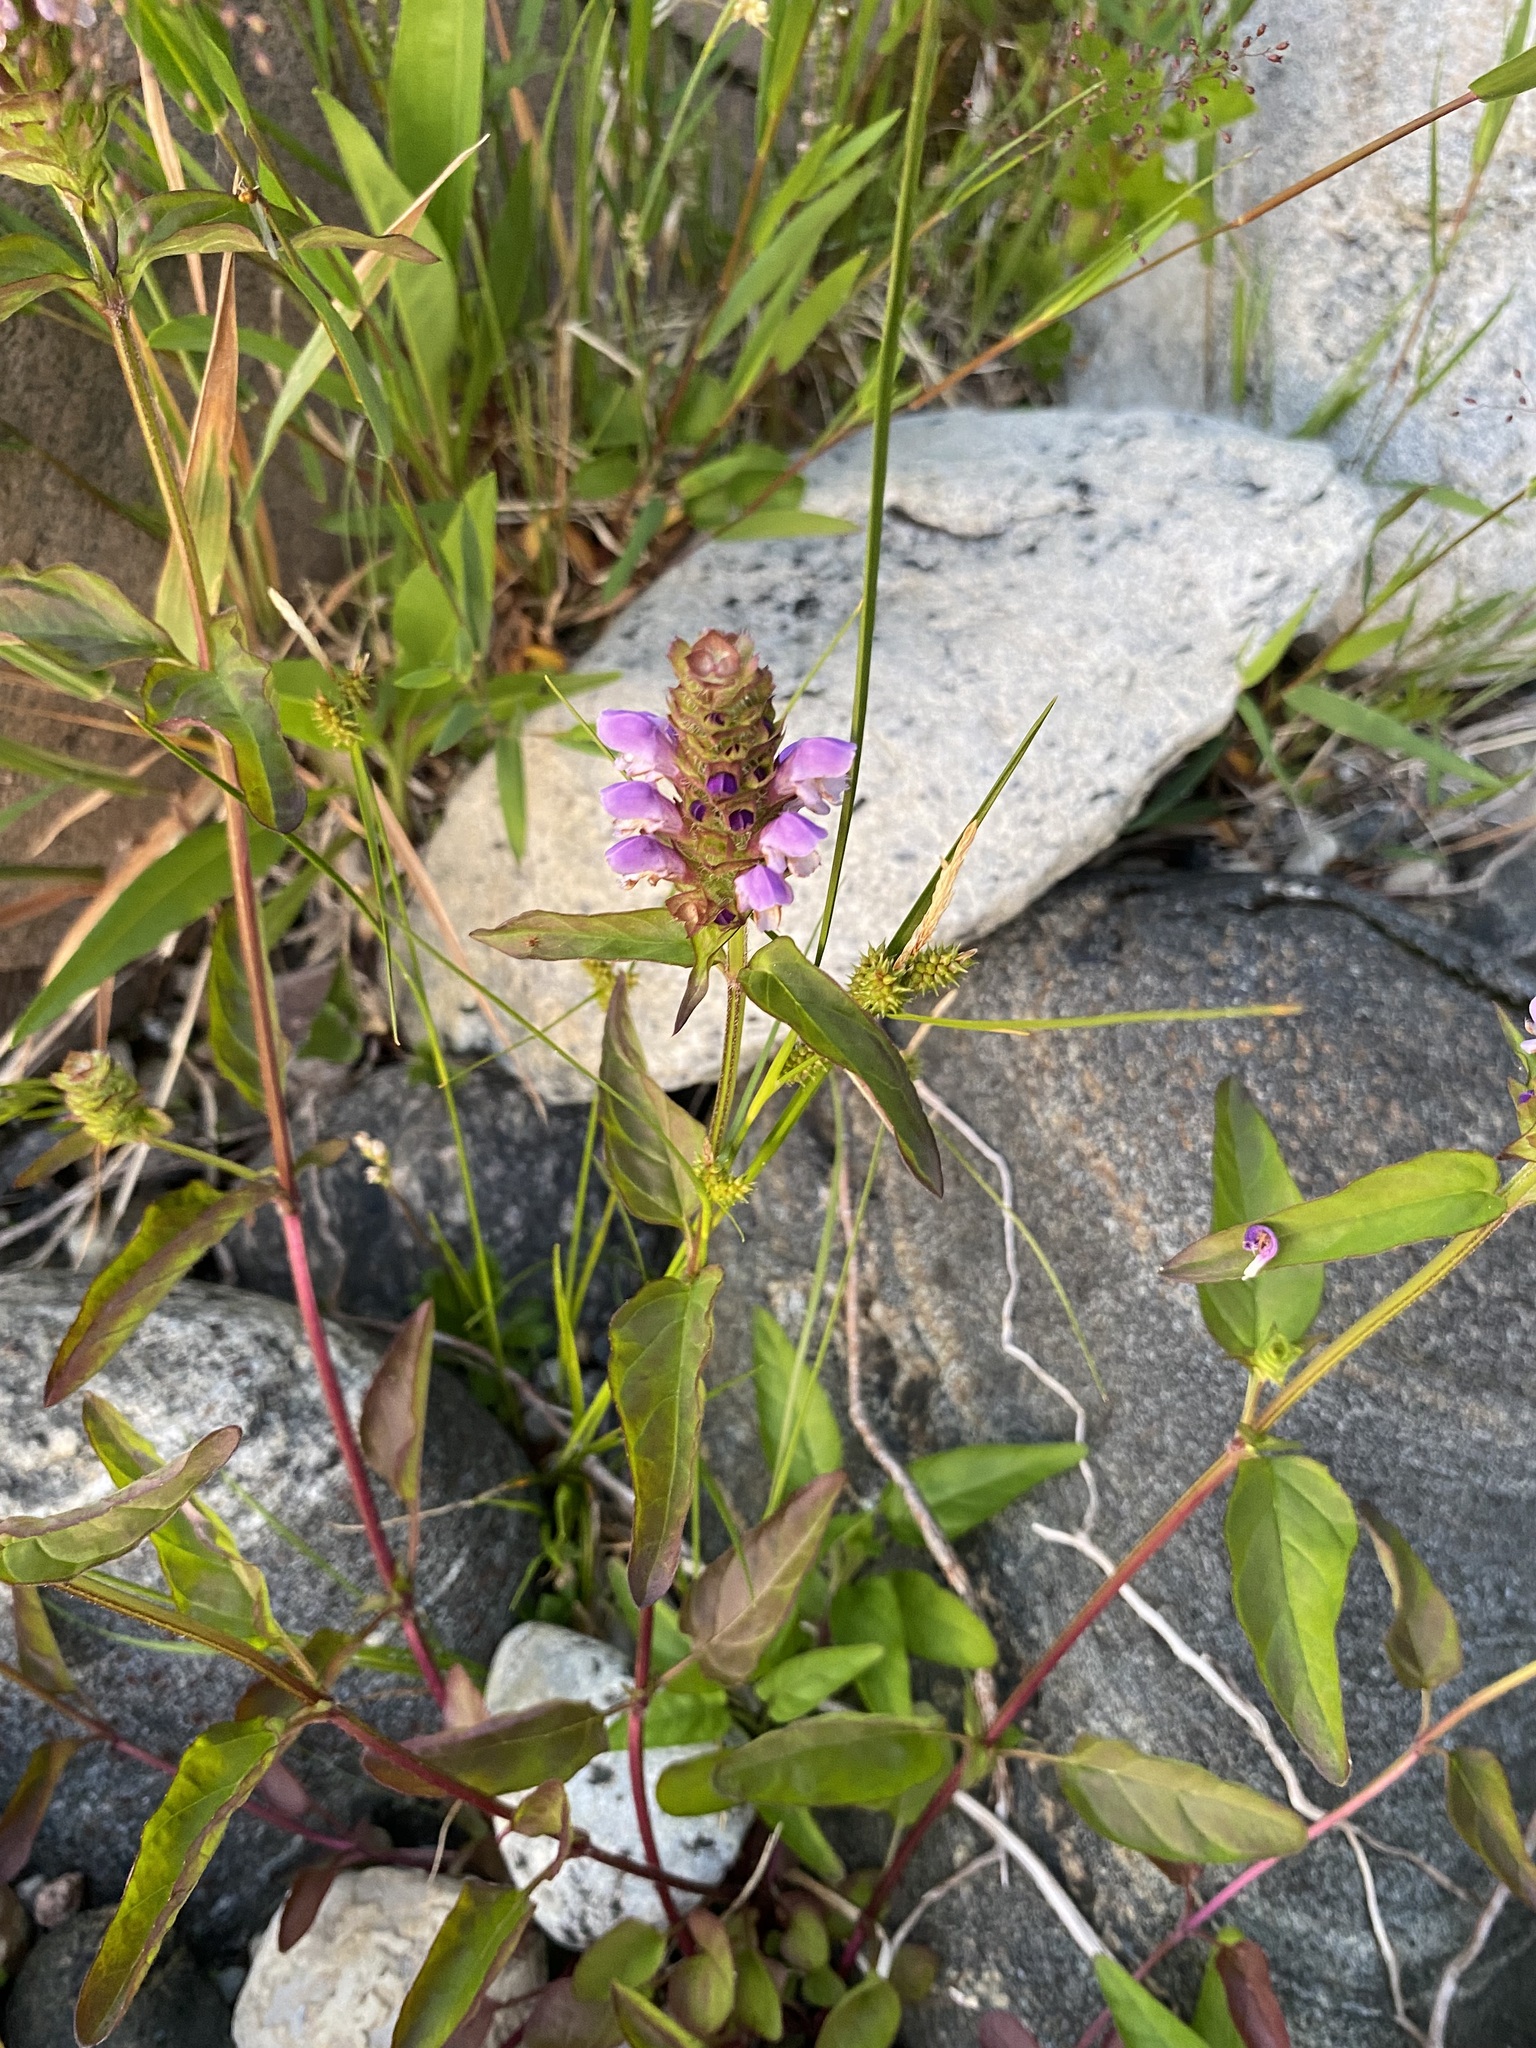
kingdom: Plantae
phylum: Tracheophyta
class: Magnoliopsida
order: Lamiales
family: Lamiaceae
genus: Prunella
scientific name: Prunella vulgaris
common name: Heal-all
